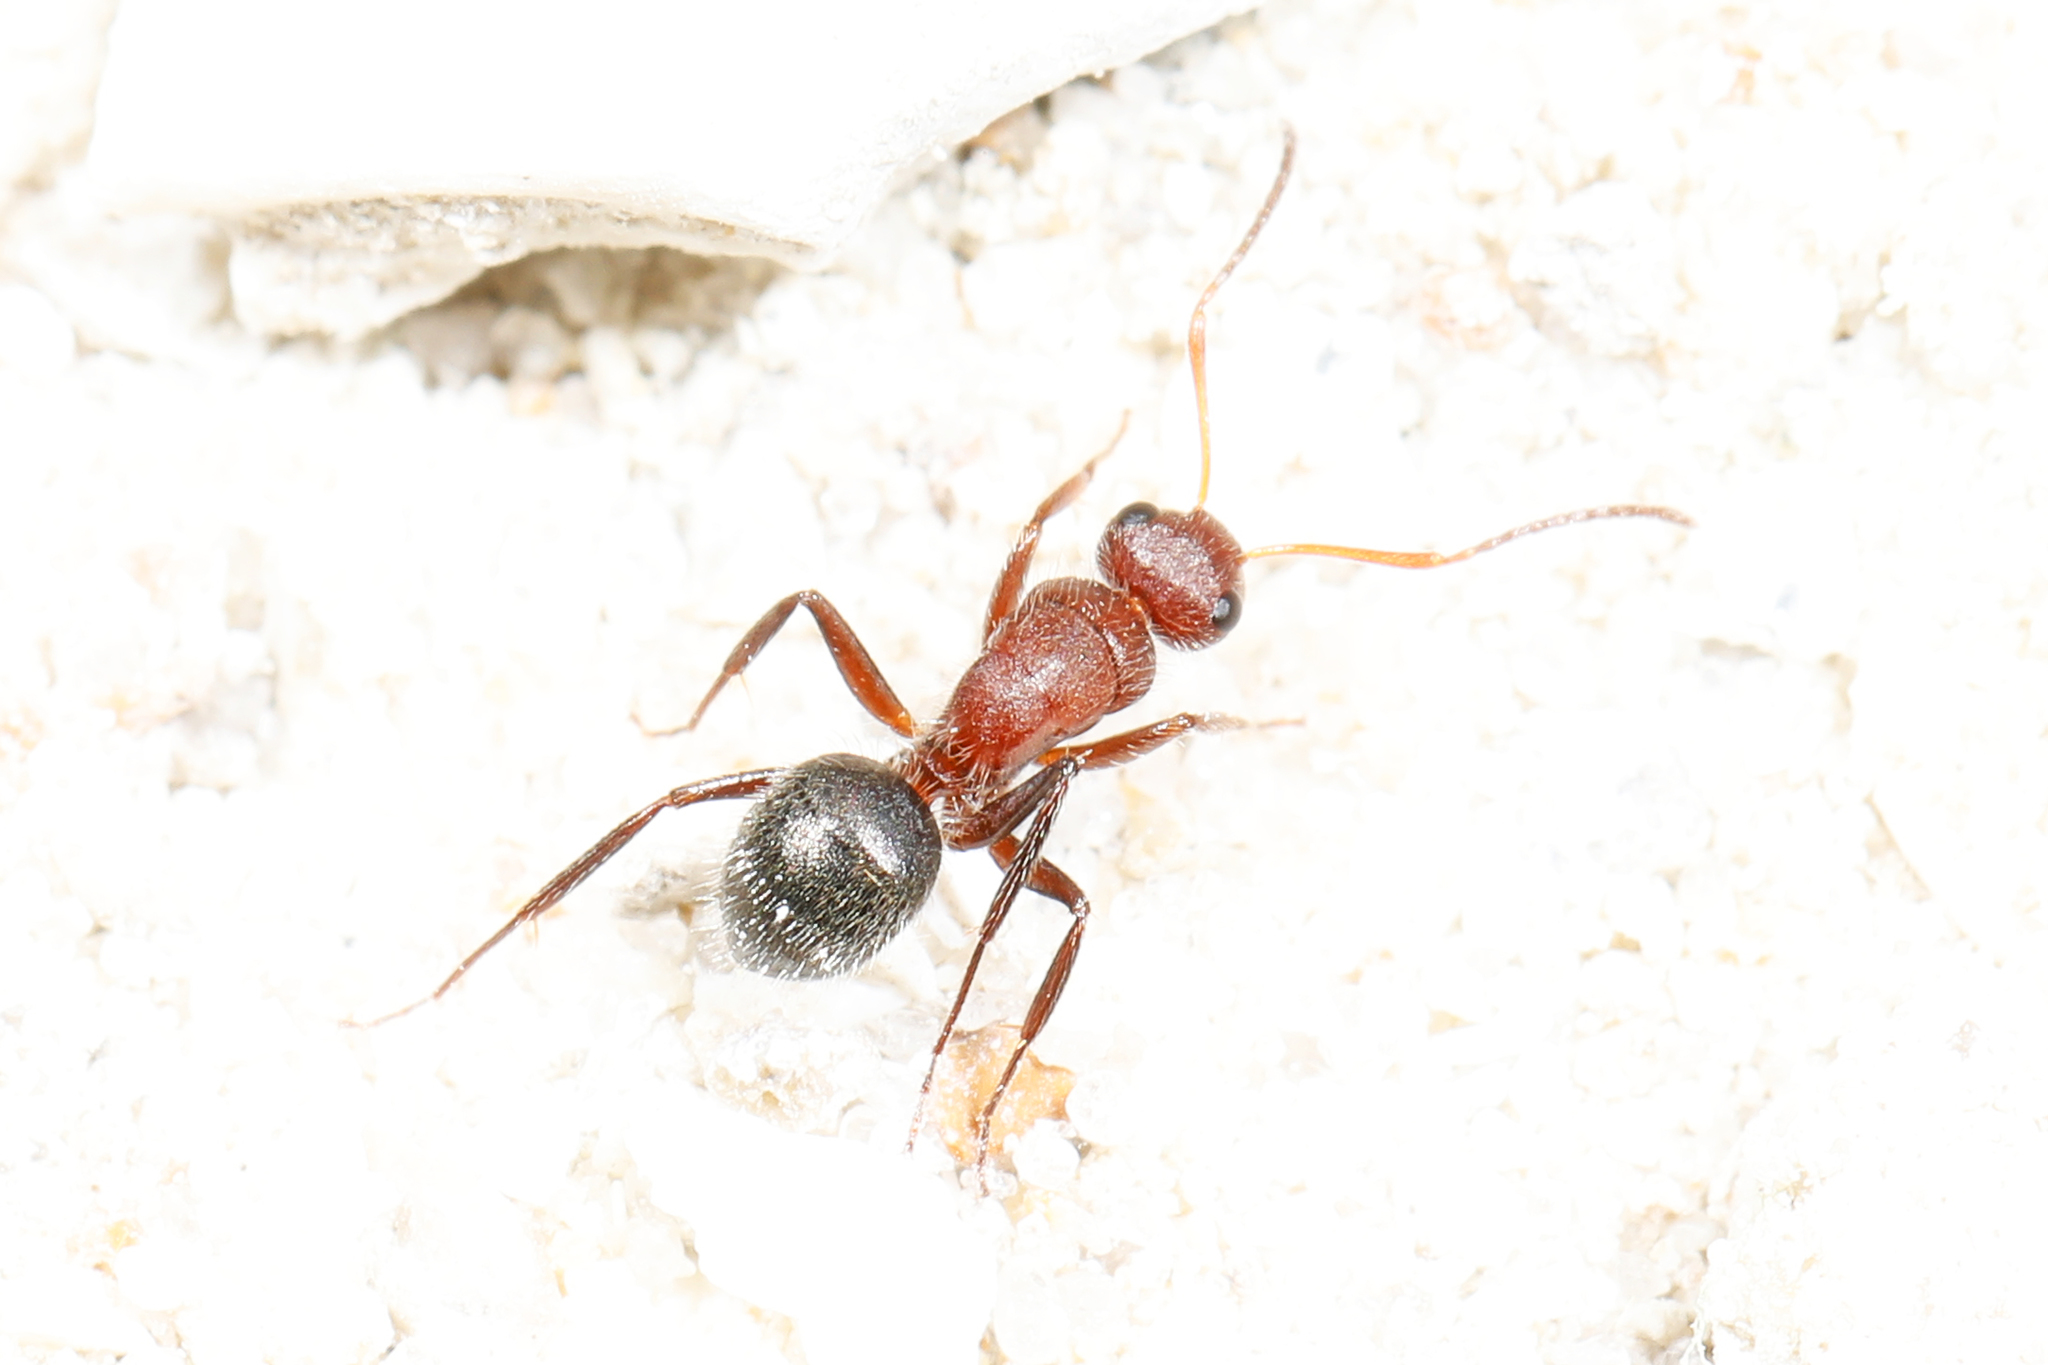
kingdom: Animalia
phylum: Arthropoda
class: Insecta
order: Hymenoptera
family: Formicidae
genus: Camponotus
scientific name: Camponotus planatus
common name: Compact carpenter ant
